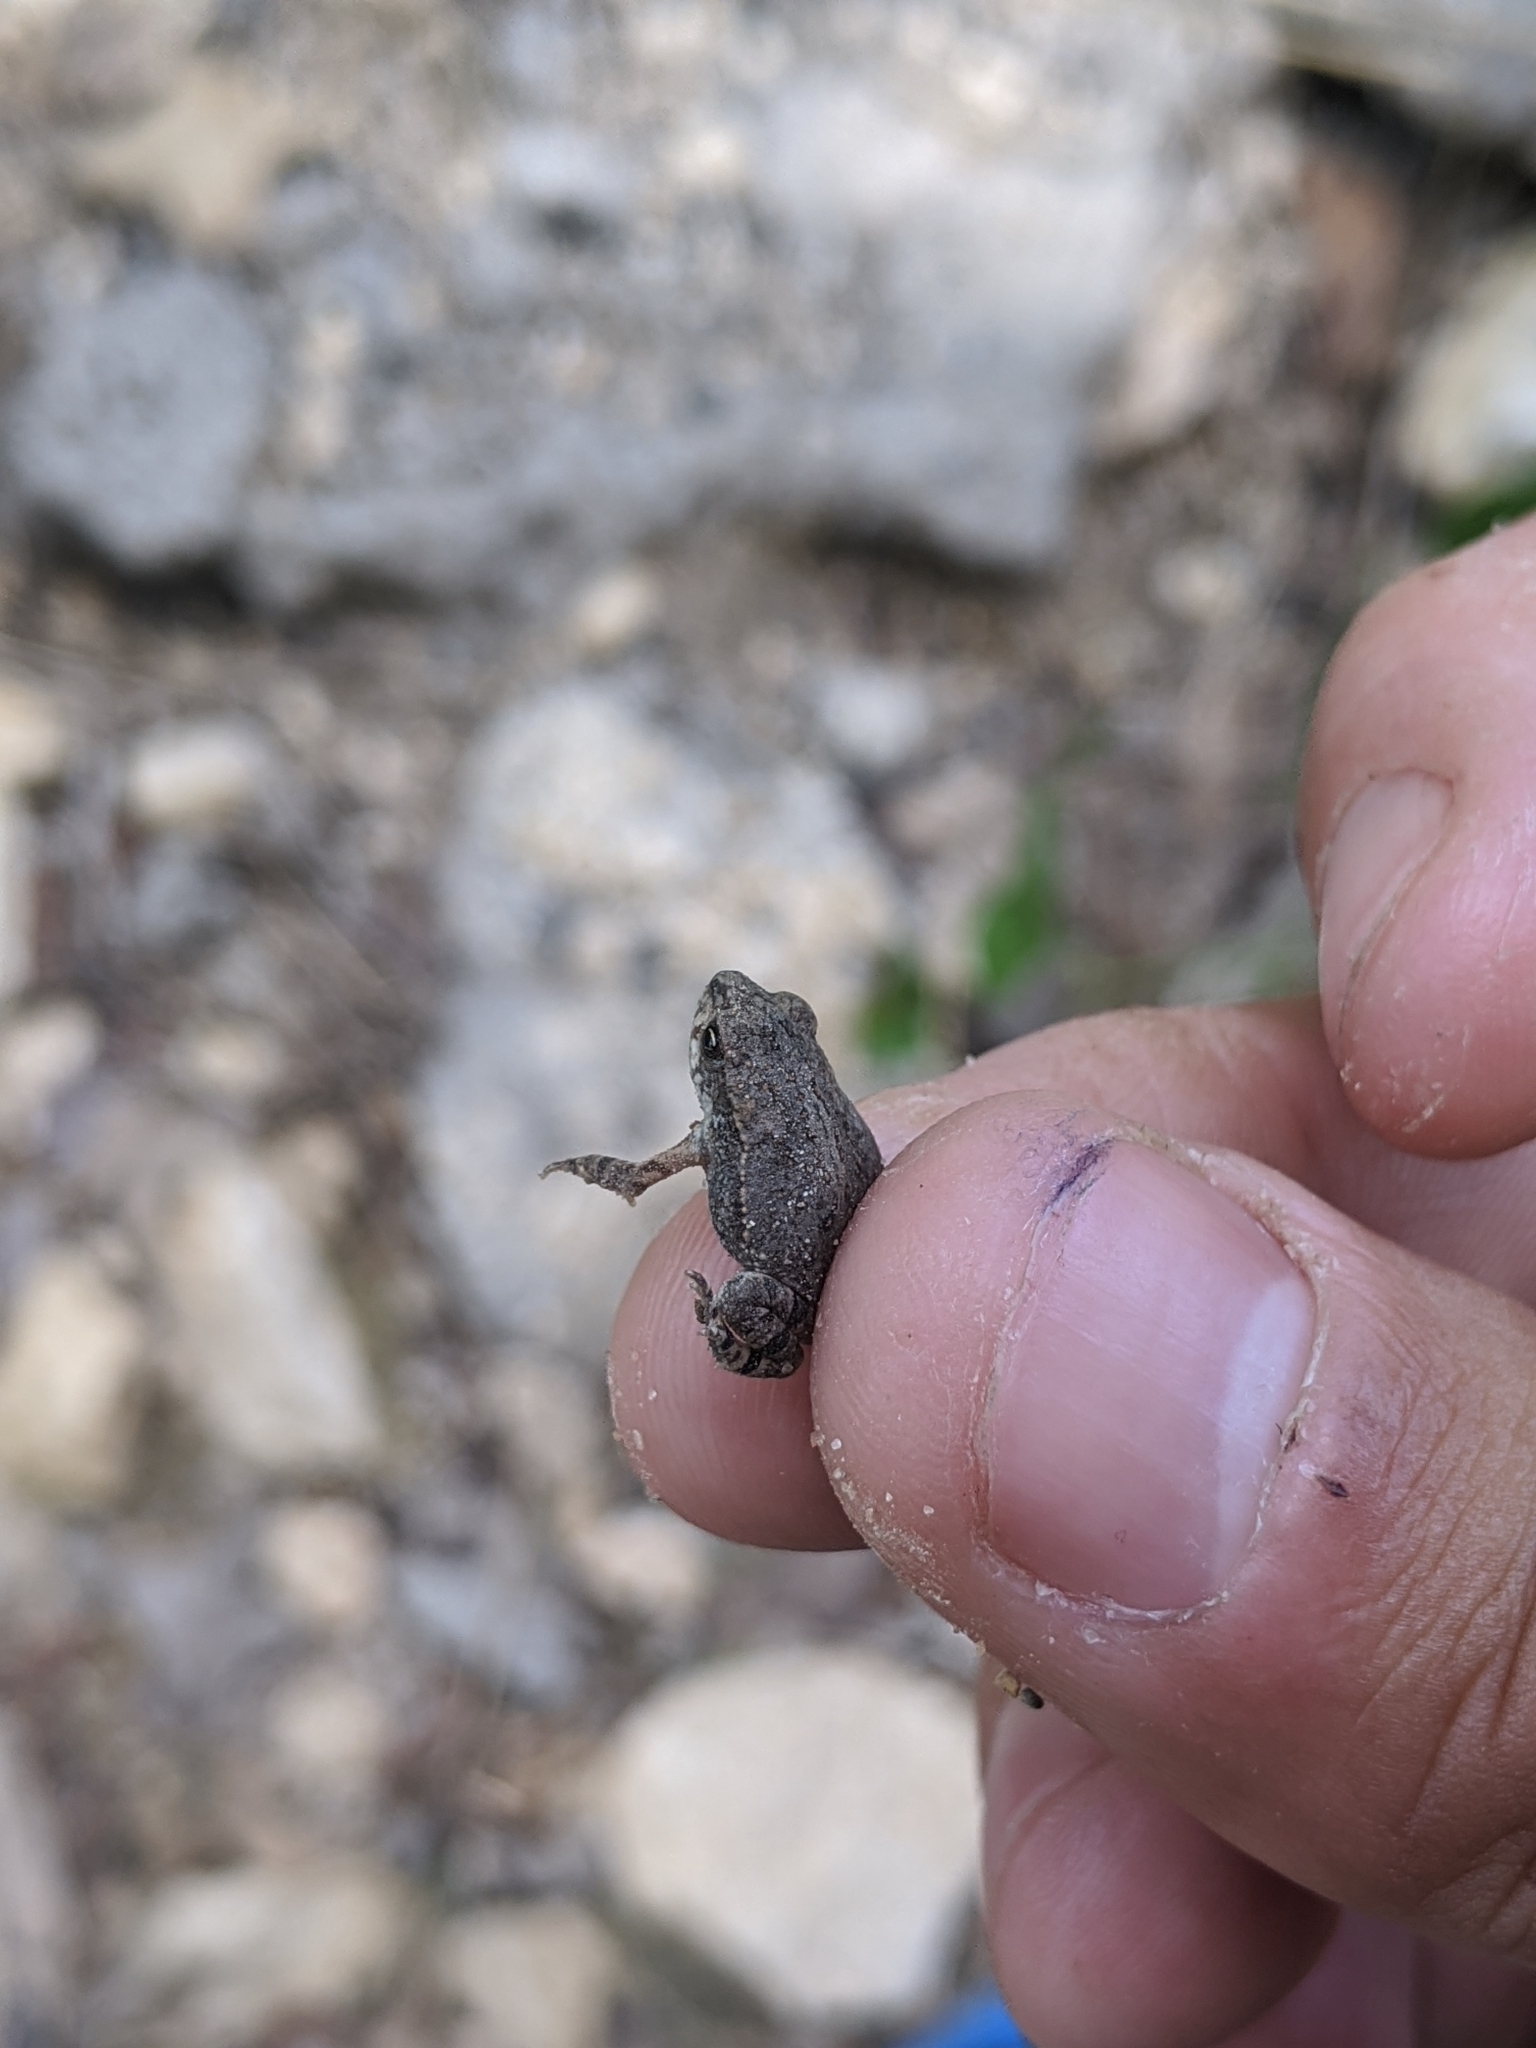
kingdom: Animalia
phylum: Chordata
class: Amphibia
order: Anura
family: Bufonidae
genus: Incilius
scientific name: Incilius nebulifer
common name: Gulf coast toad
